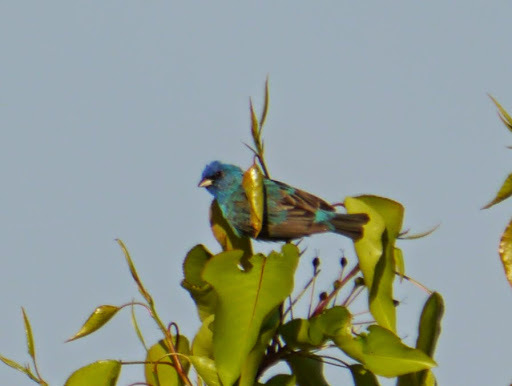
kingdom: Animalia
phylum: Chordata
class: Aves
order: Passeriformes
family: Cardinalidae
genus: Passerina
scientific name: Passerina cyanea
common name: Indigo bunting
